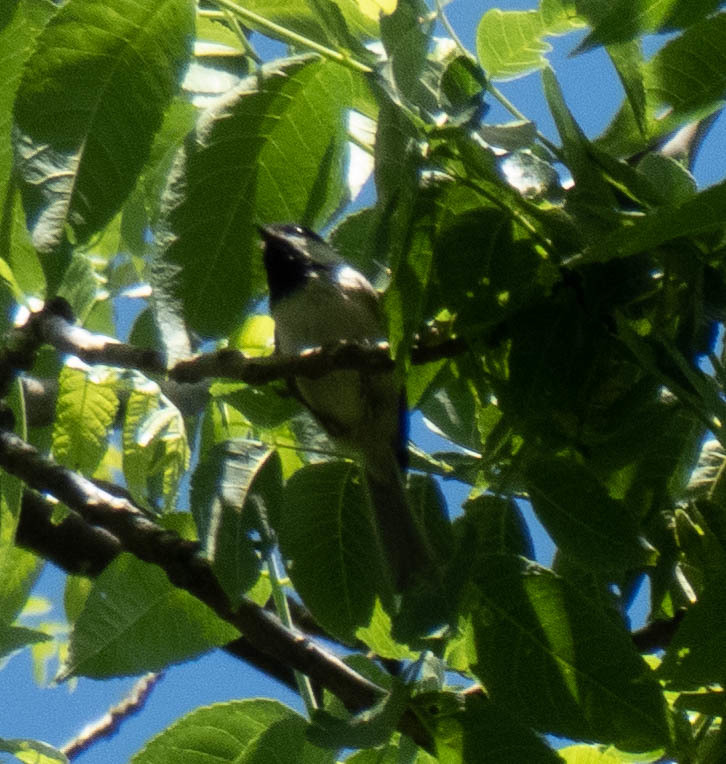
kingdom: Animalia
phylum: Chordata
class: Aves
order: Passeriformes
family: Paridae
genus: Poecile
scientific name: Poecile carolinensis
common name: Carolina chickadee
